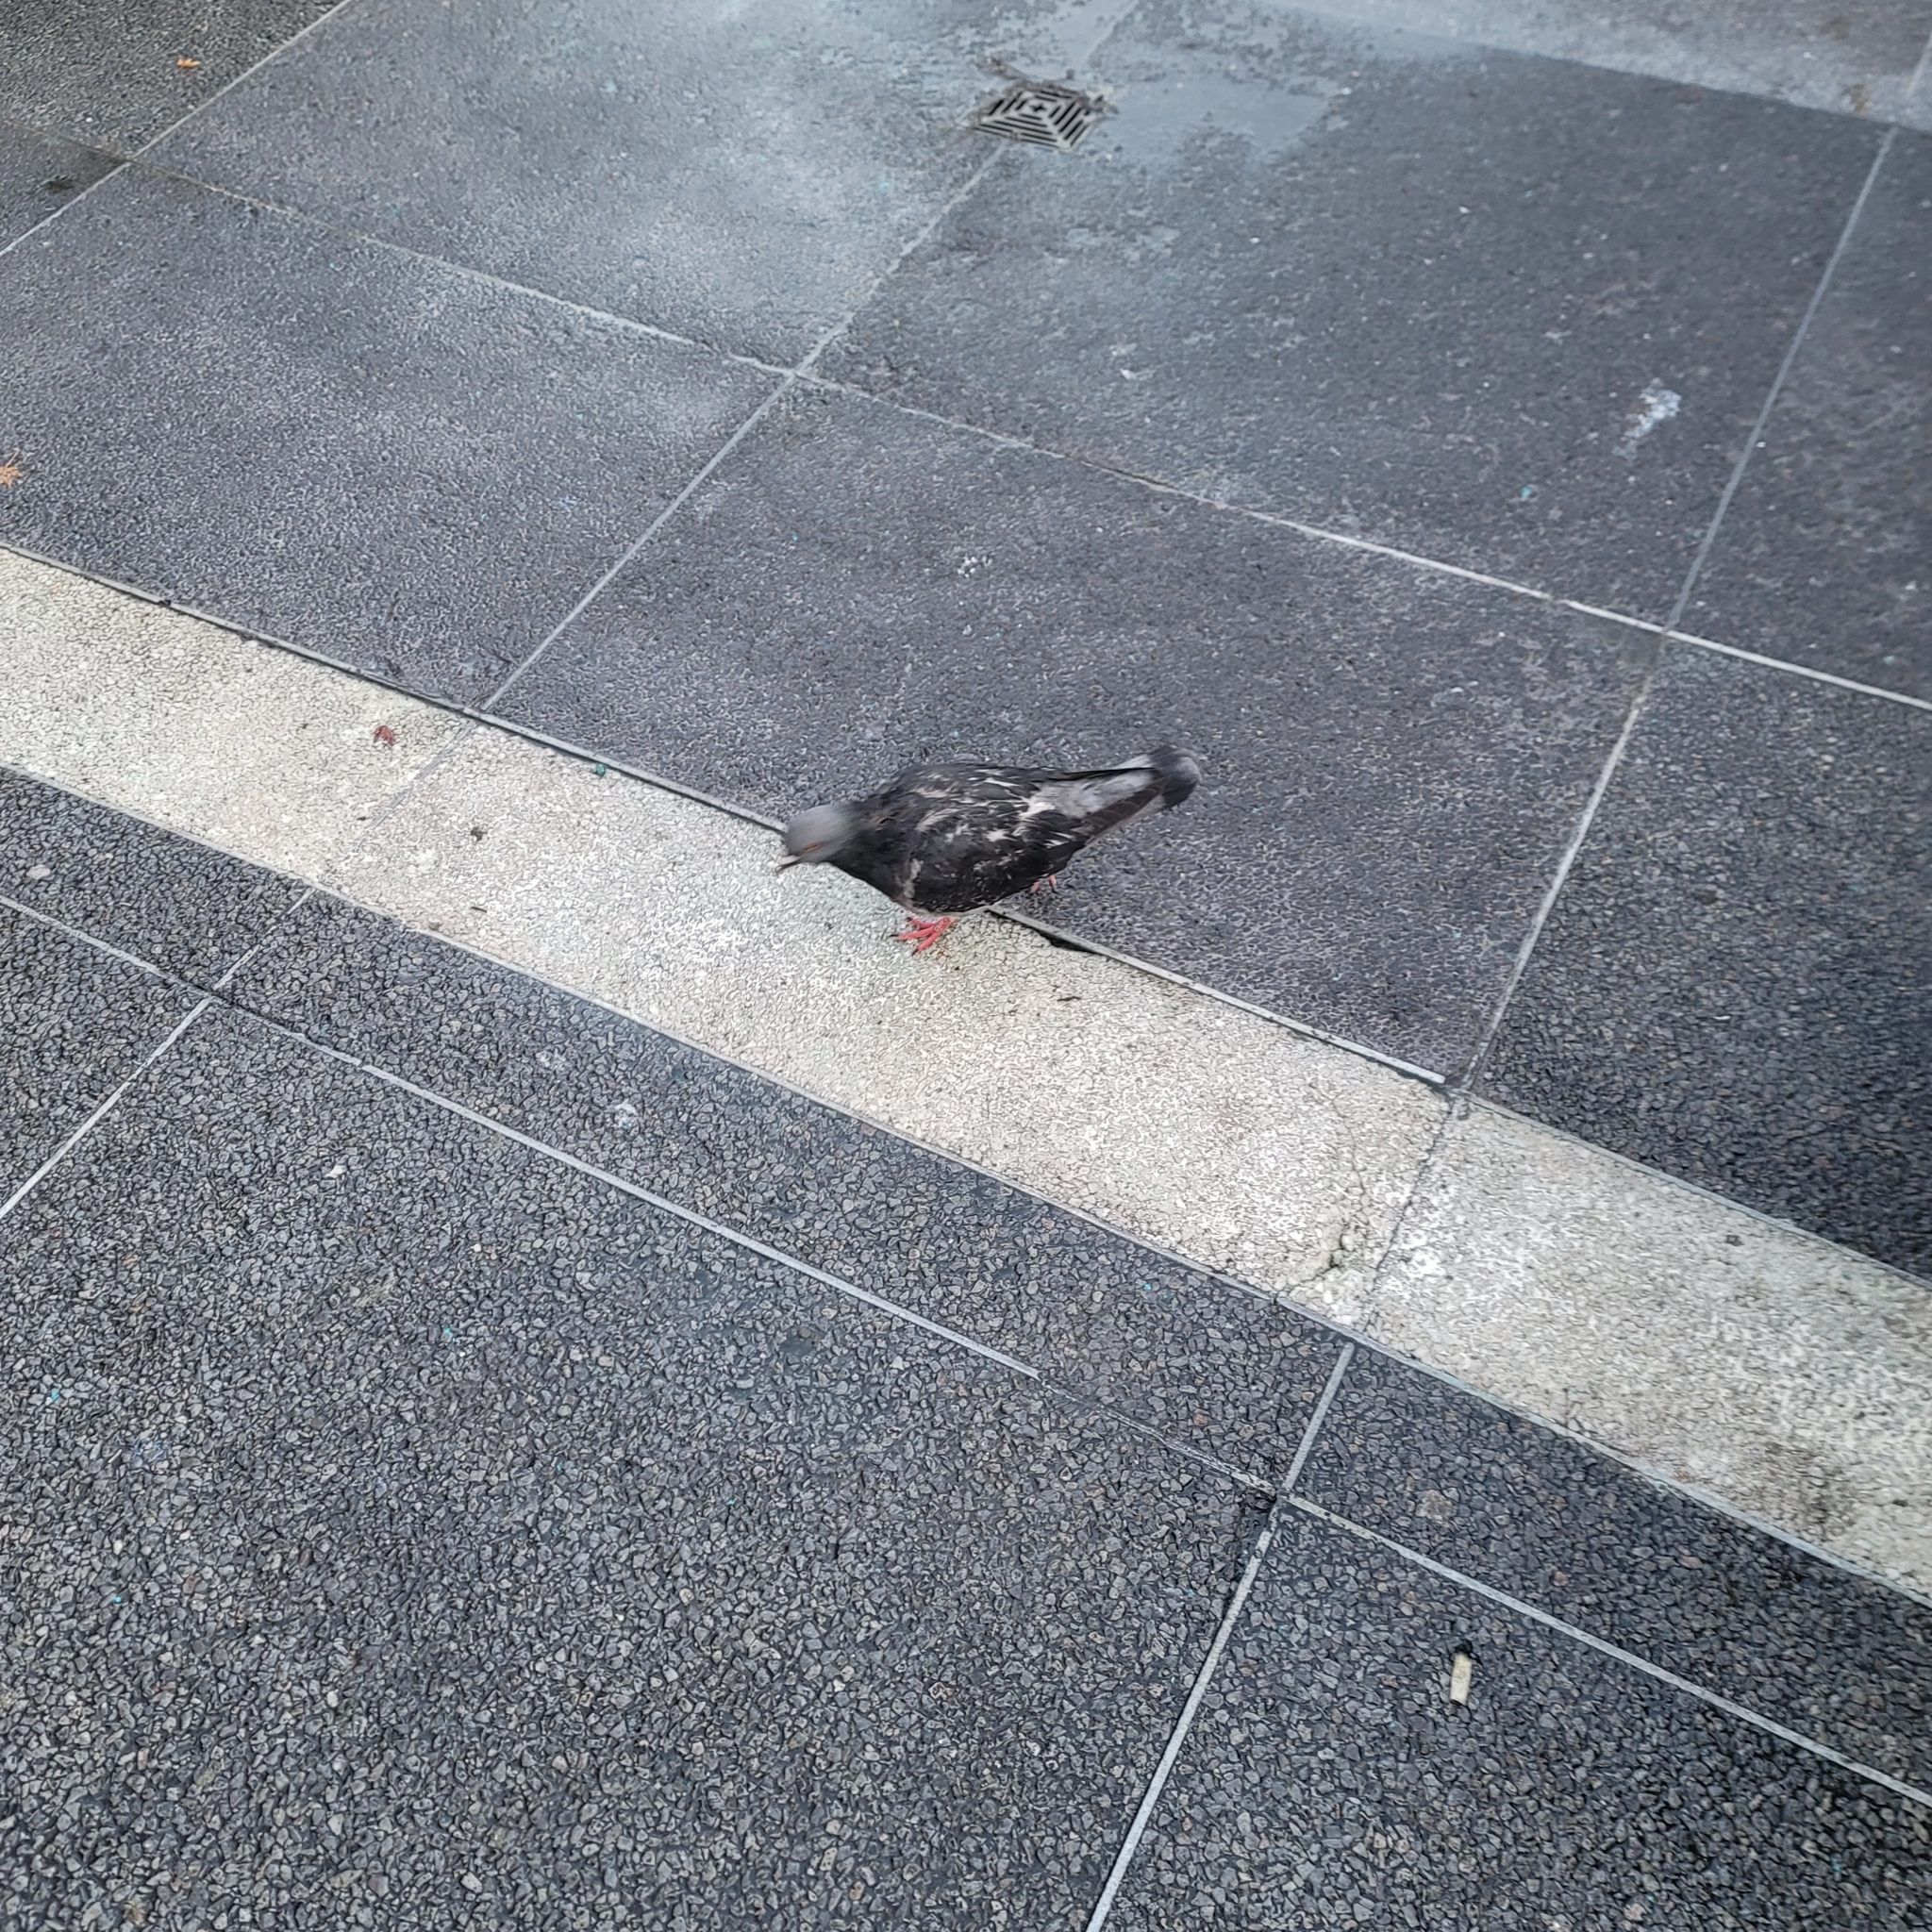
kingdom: Animalia
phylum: Chordata
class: Aves
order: Columbiformes
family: Columbidae
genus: Columba
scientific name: Columba livia
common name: Rock pigeon
